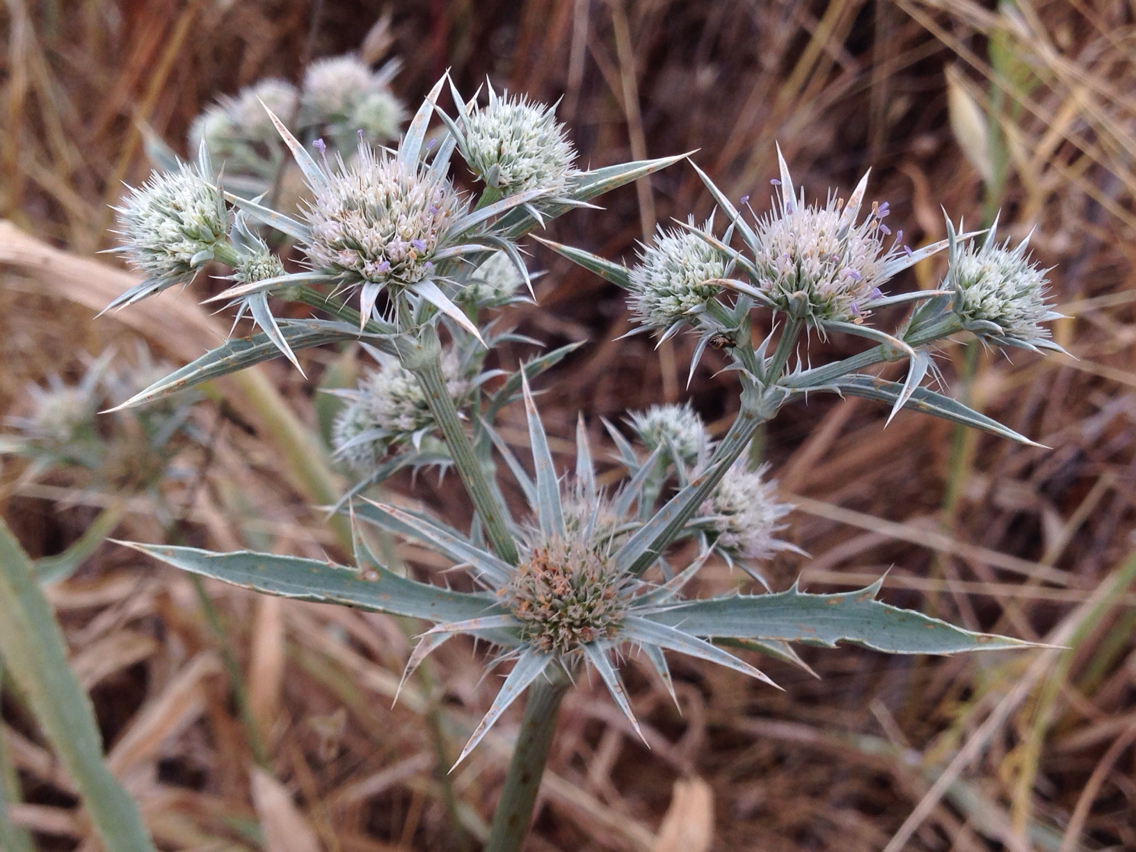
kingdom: Plantae
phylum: Tracheophyta
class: Magnoliopsida
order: Apiales
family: Apiaceae
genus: Eryngium
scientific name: Eryngium aristulatum
